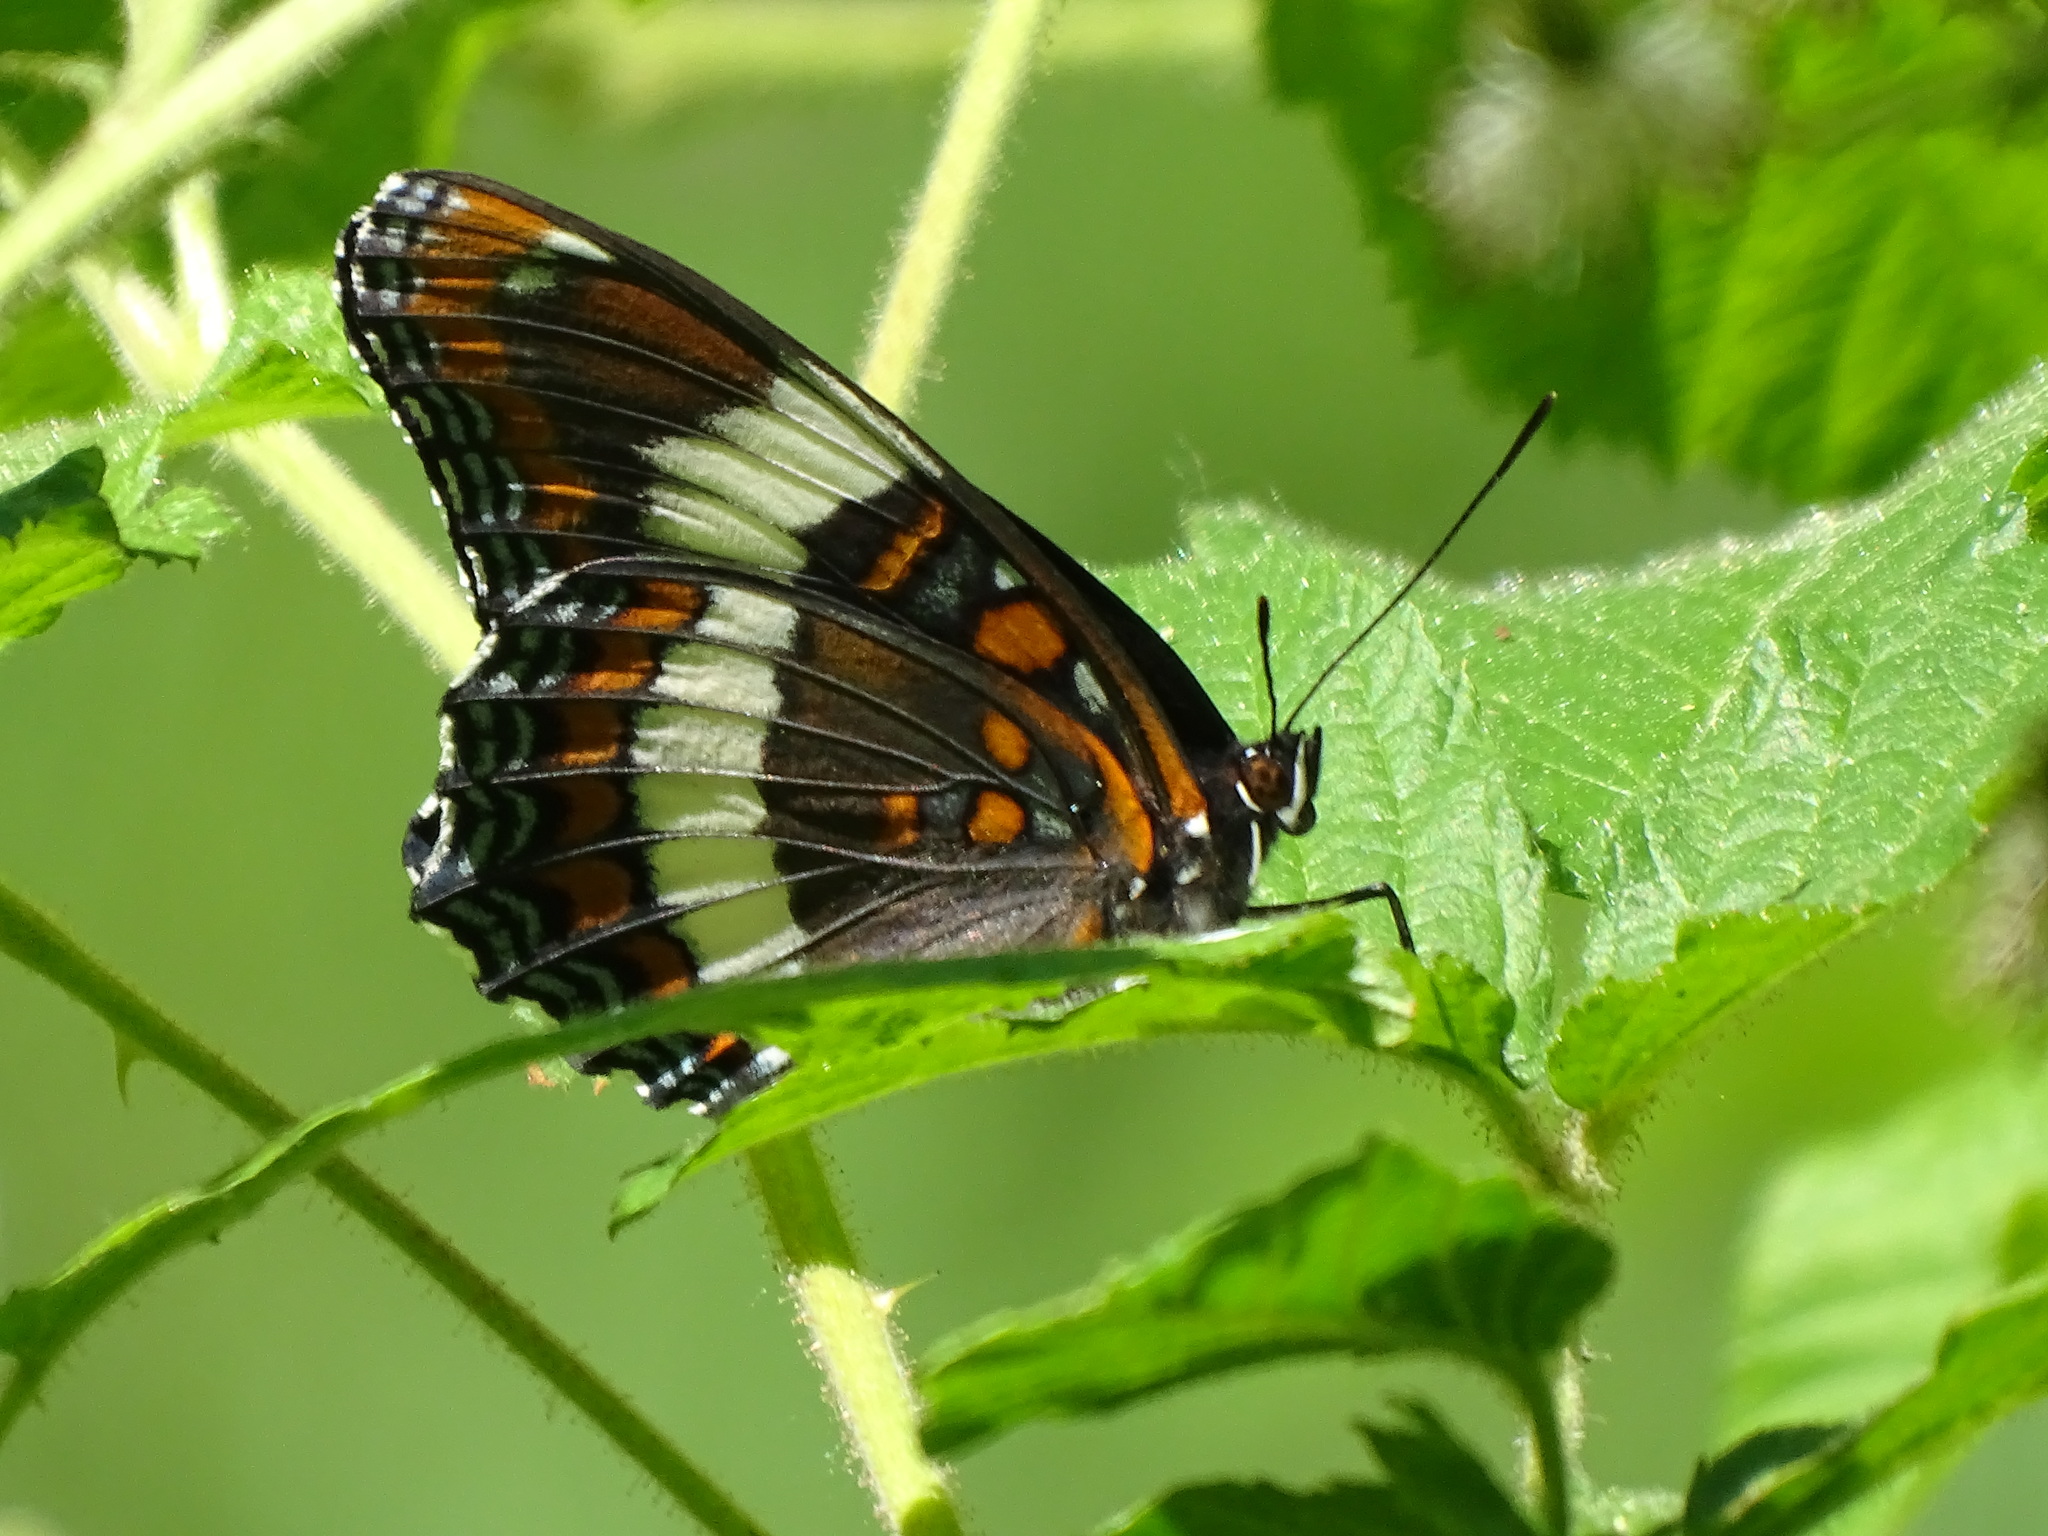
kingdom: Animalia
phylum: Arthropoda
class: Insecta
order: Lepidoptera
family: Nymphalidae
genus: Limenitis
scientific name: Limenitis arthemis
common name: Red-spotted admiral
